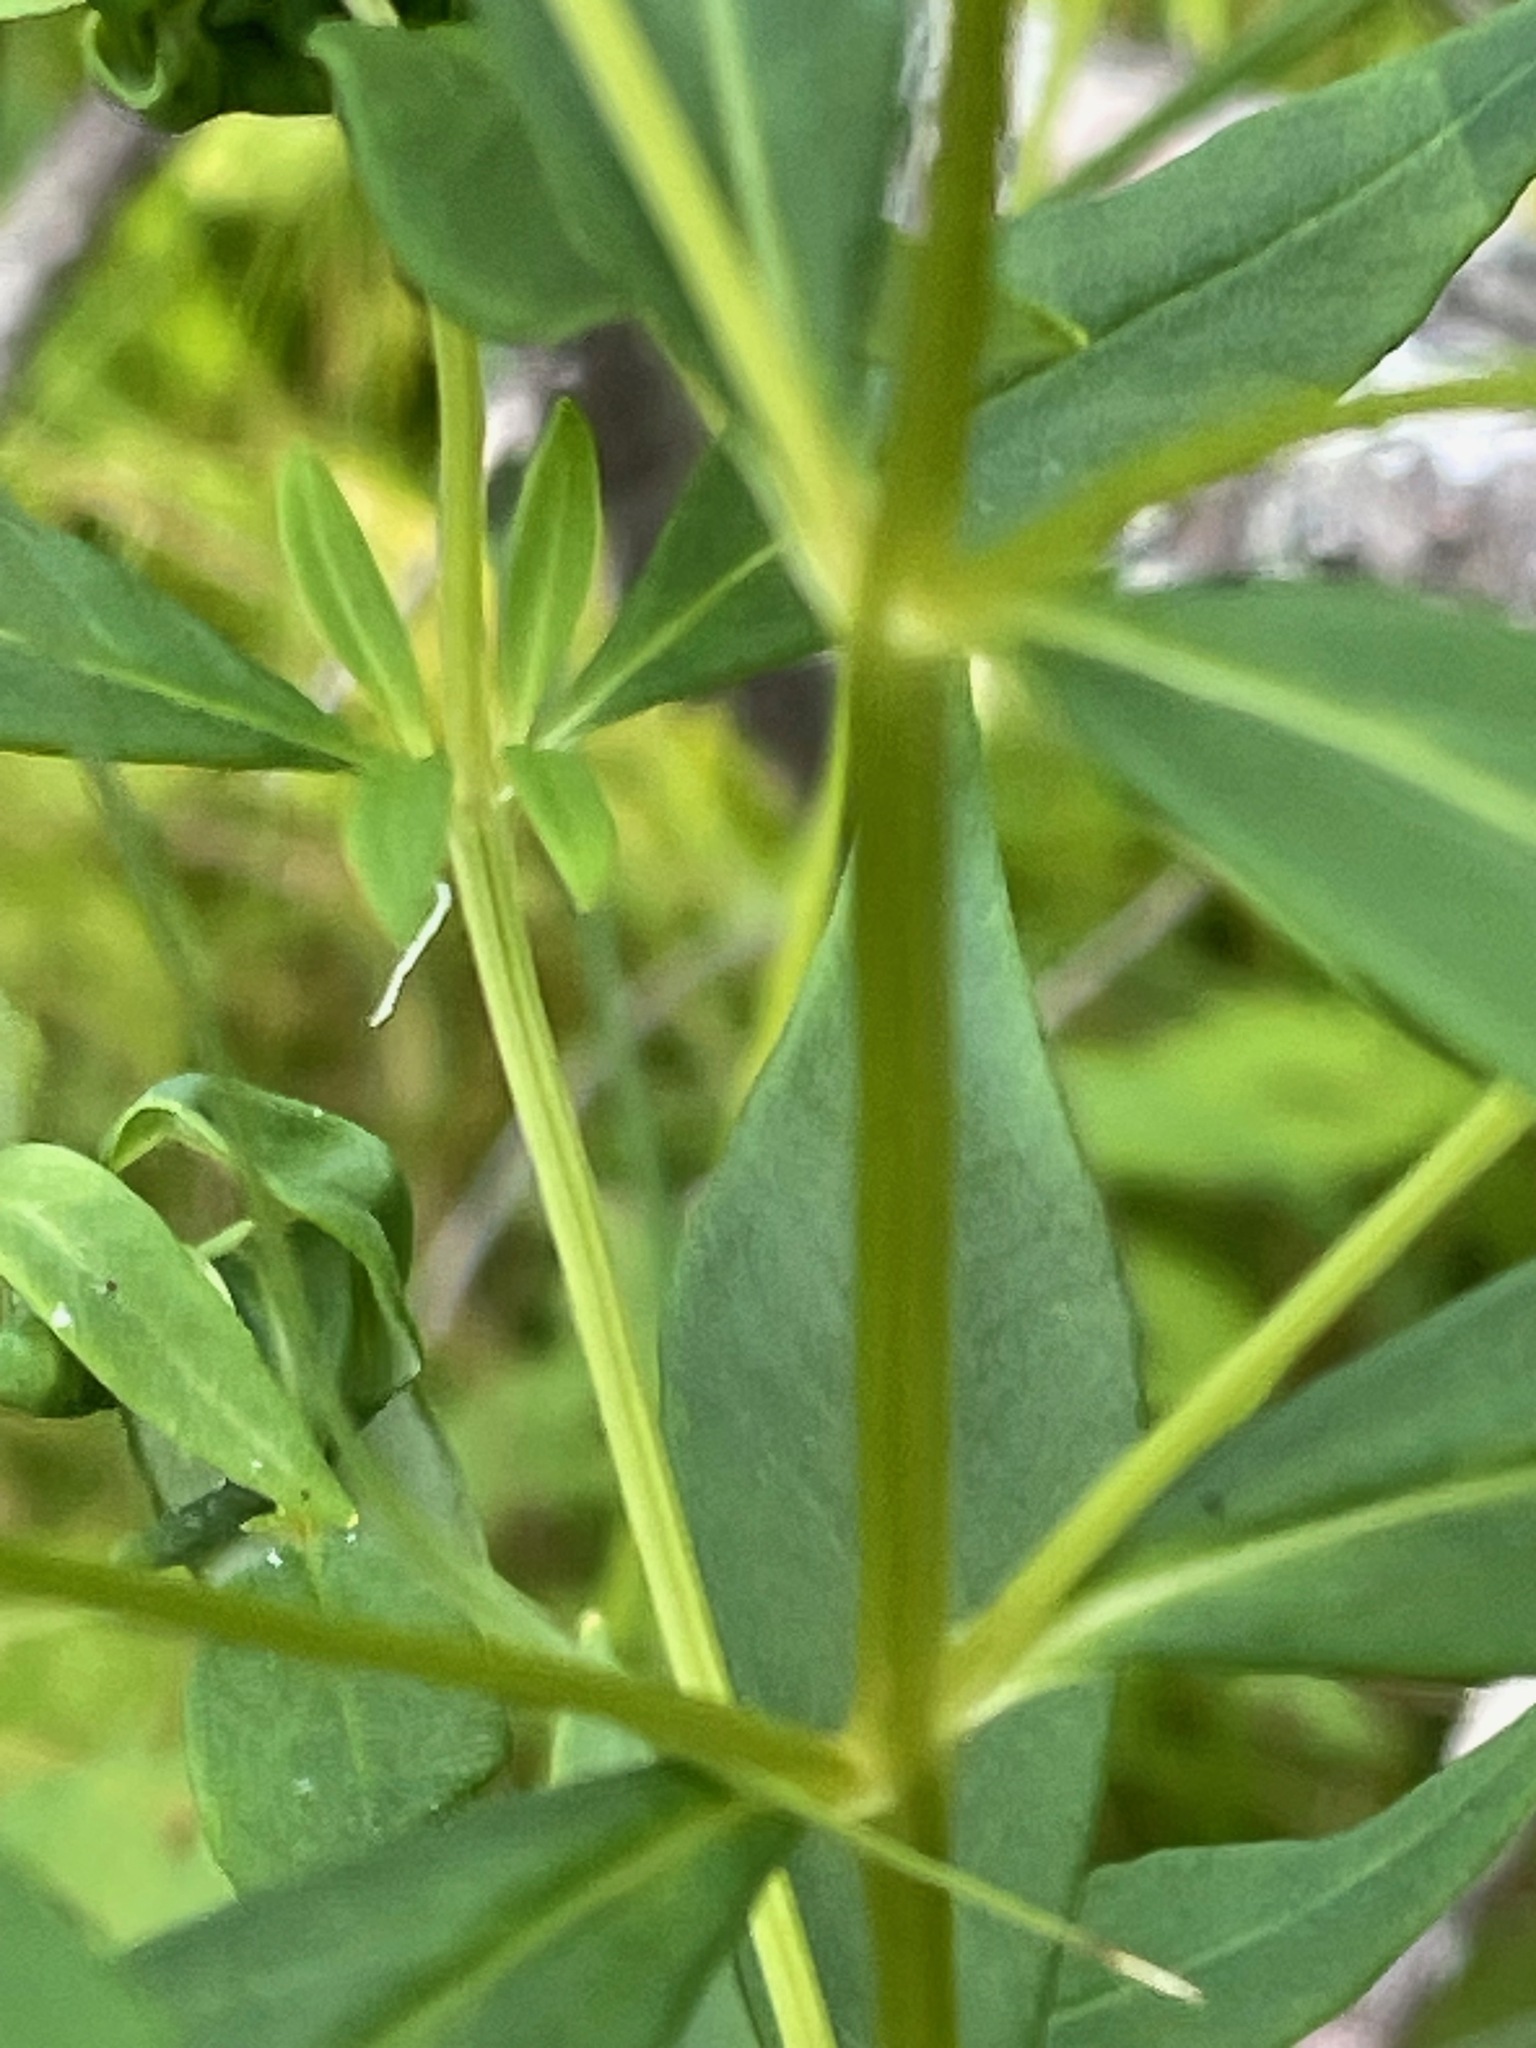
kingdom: Plantae
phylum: Tracheophyta
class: Magnoliopsida
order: Ericales
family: Primulaceae
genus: Lysimachia
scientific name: Lysimachia terrestris
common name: Lake loosestrife
